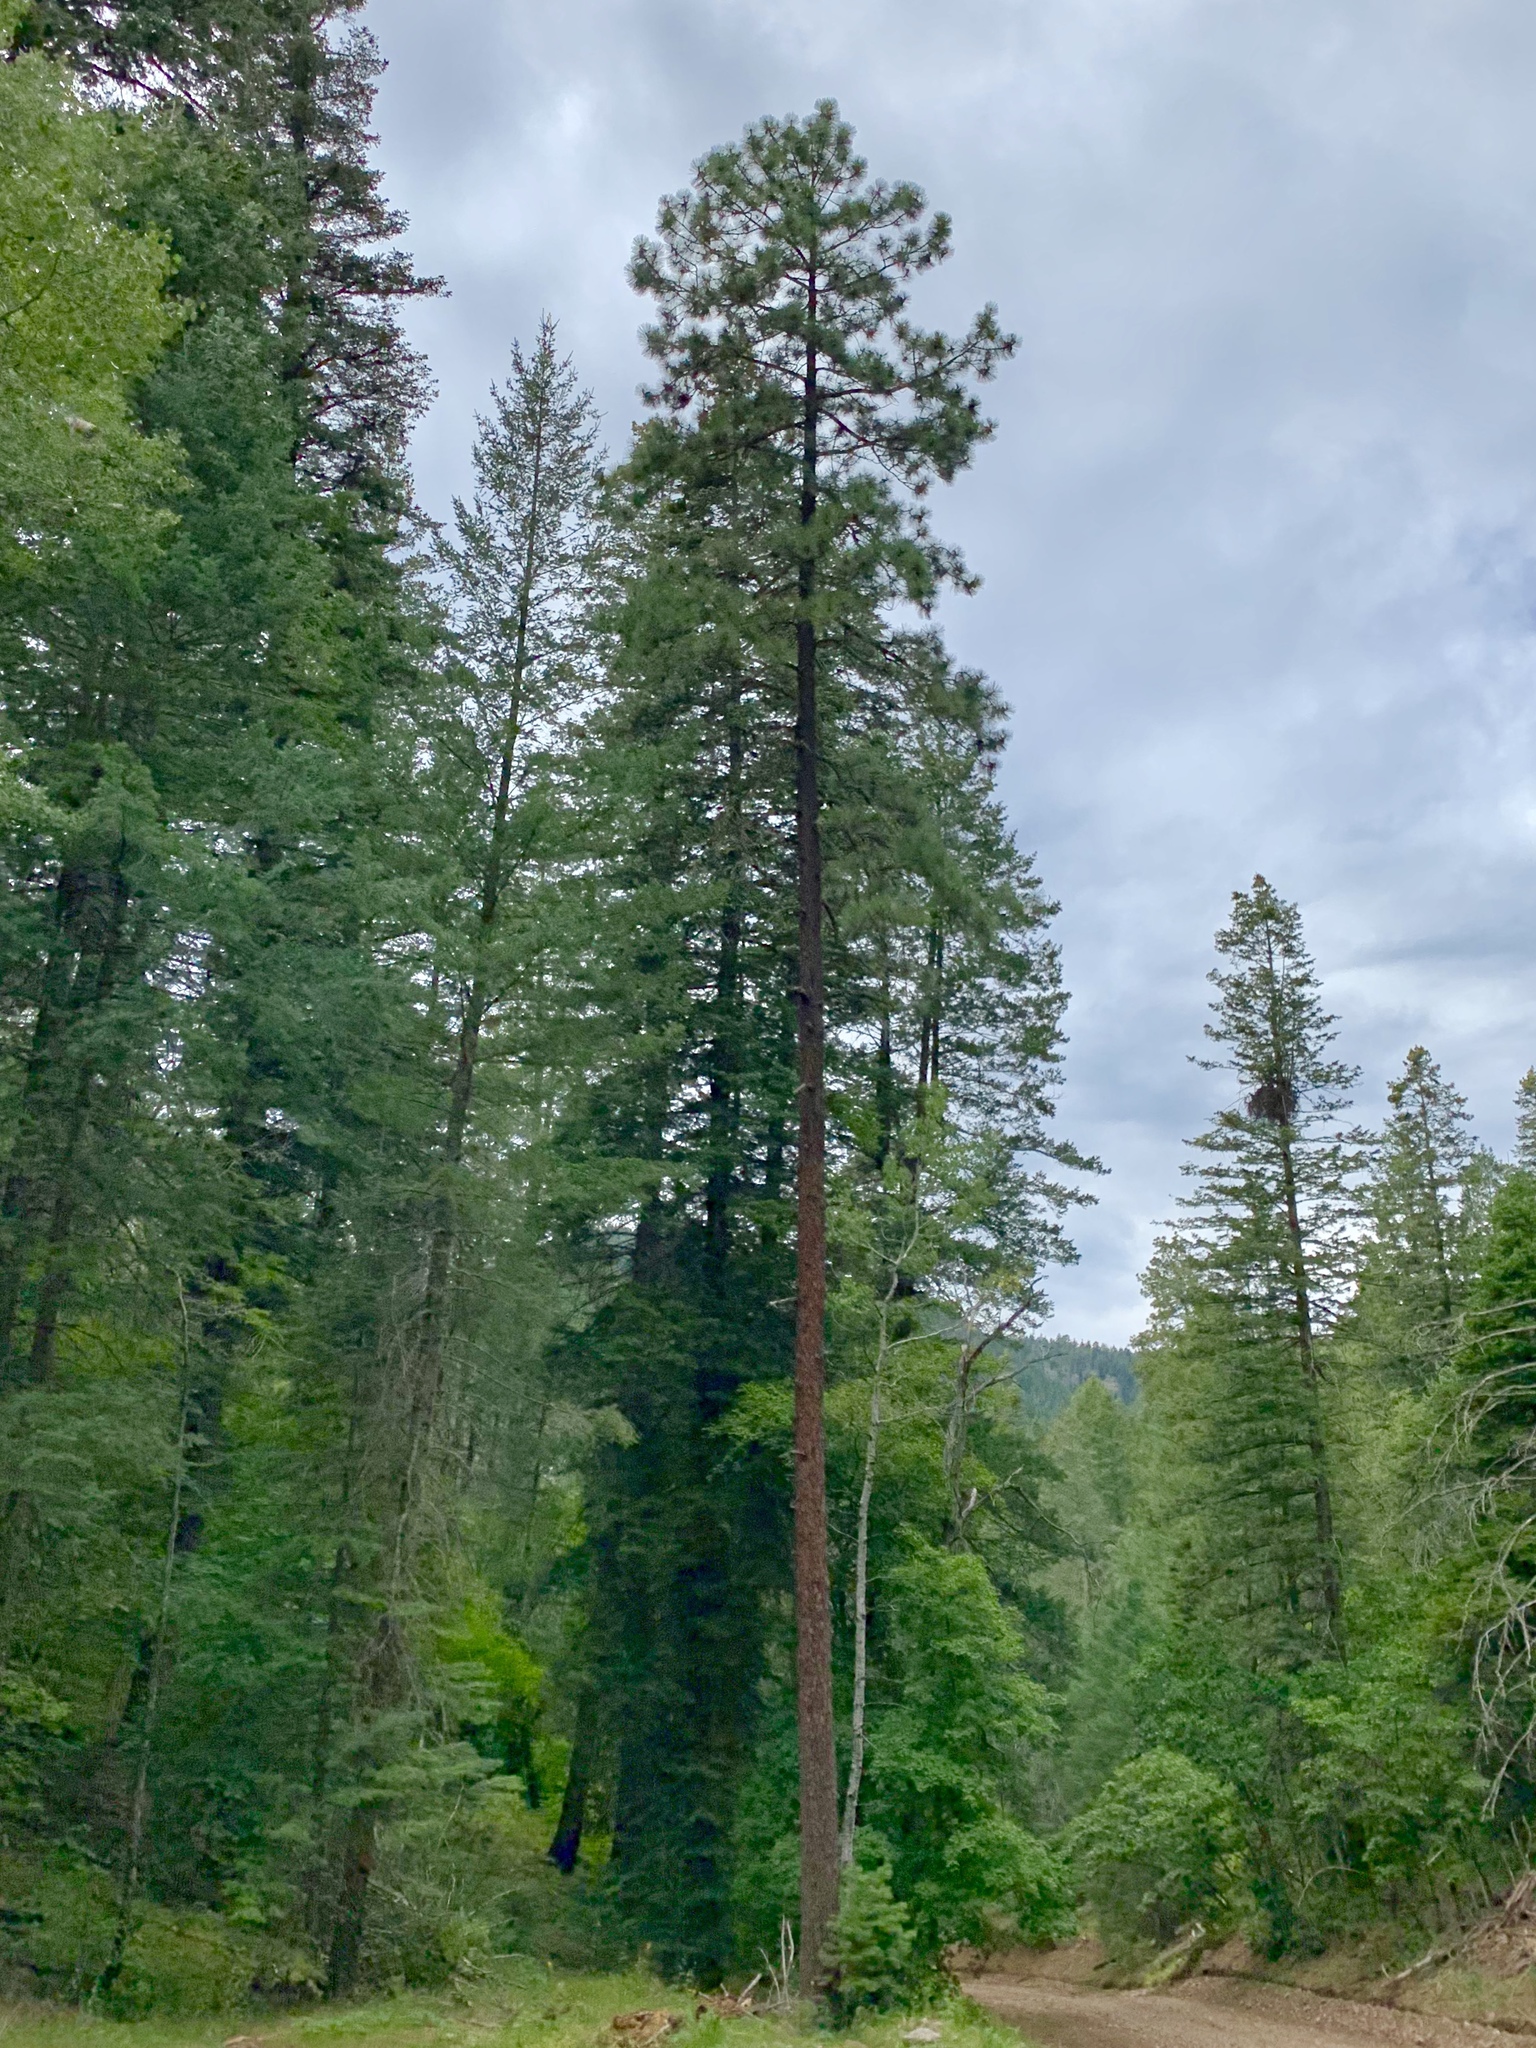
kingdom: Plantae
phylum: Tracheophyta
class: Pinopsida
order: Pinales
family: Pinaceae
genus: Pinus
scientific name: Pinus ponderosa
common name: Western yellow-pine
